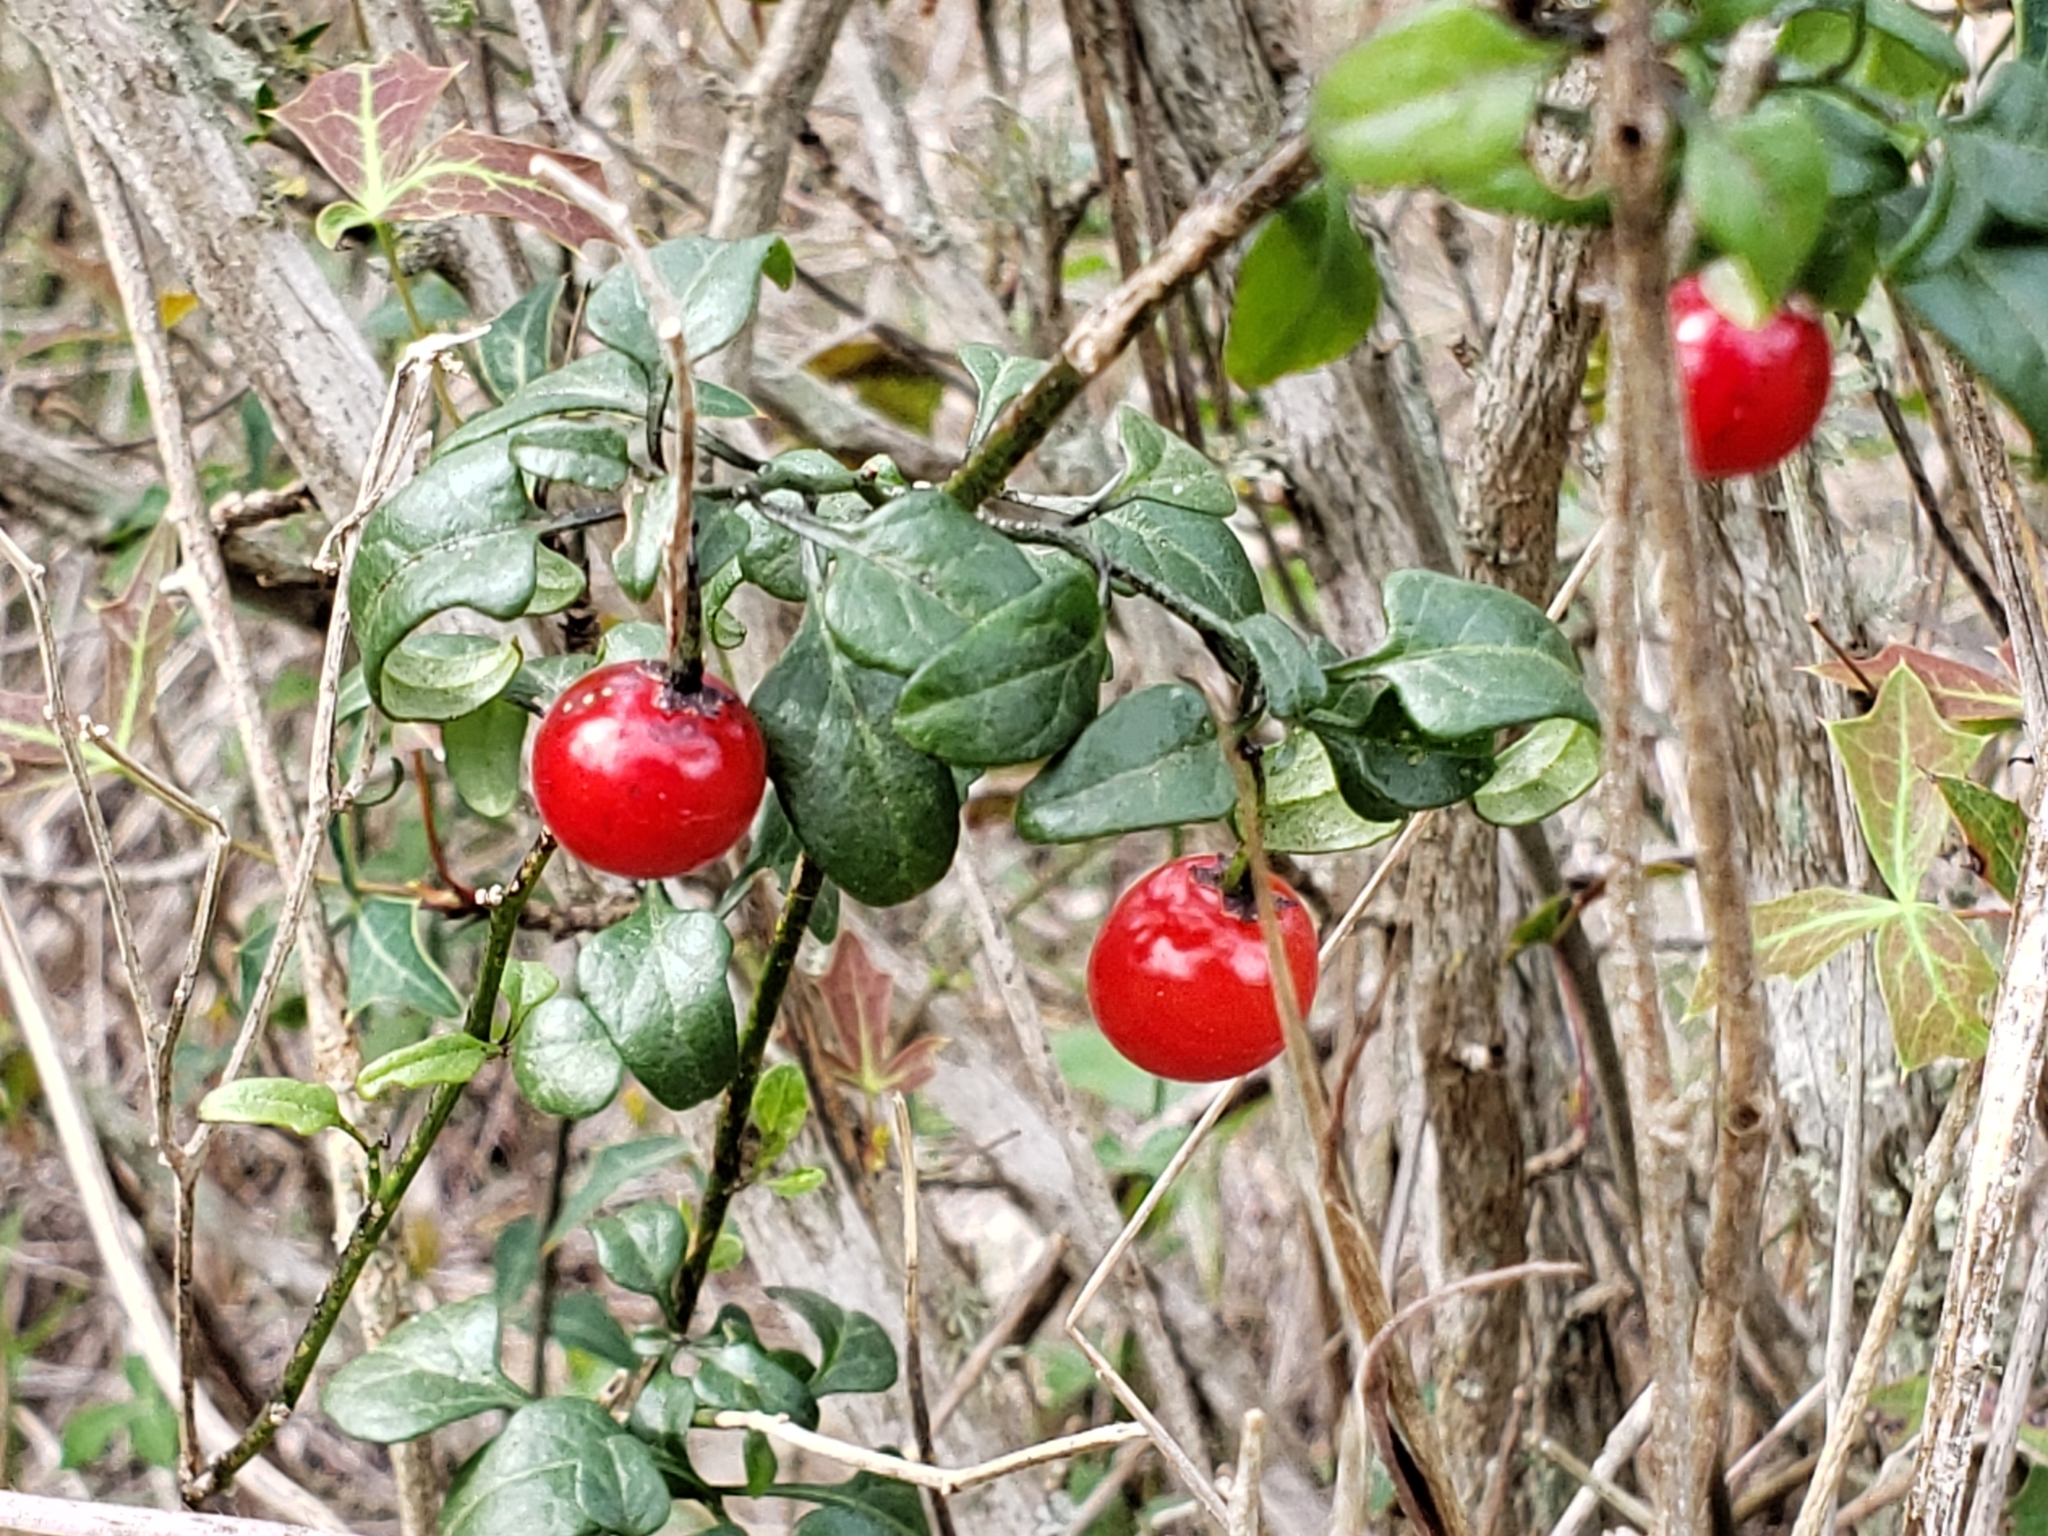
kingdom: Plantae
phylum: Tracheophyta
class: Magnoliopsida
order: Solanales
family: Solanaceae
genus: Solanum
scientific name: Solanum triquetrum
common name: Texas nightshade
